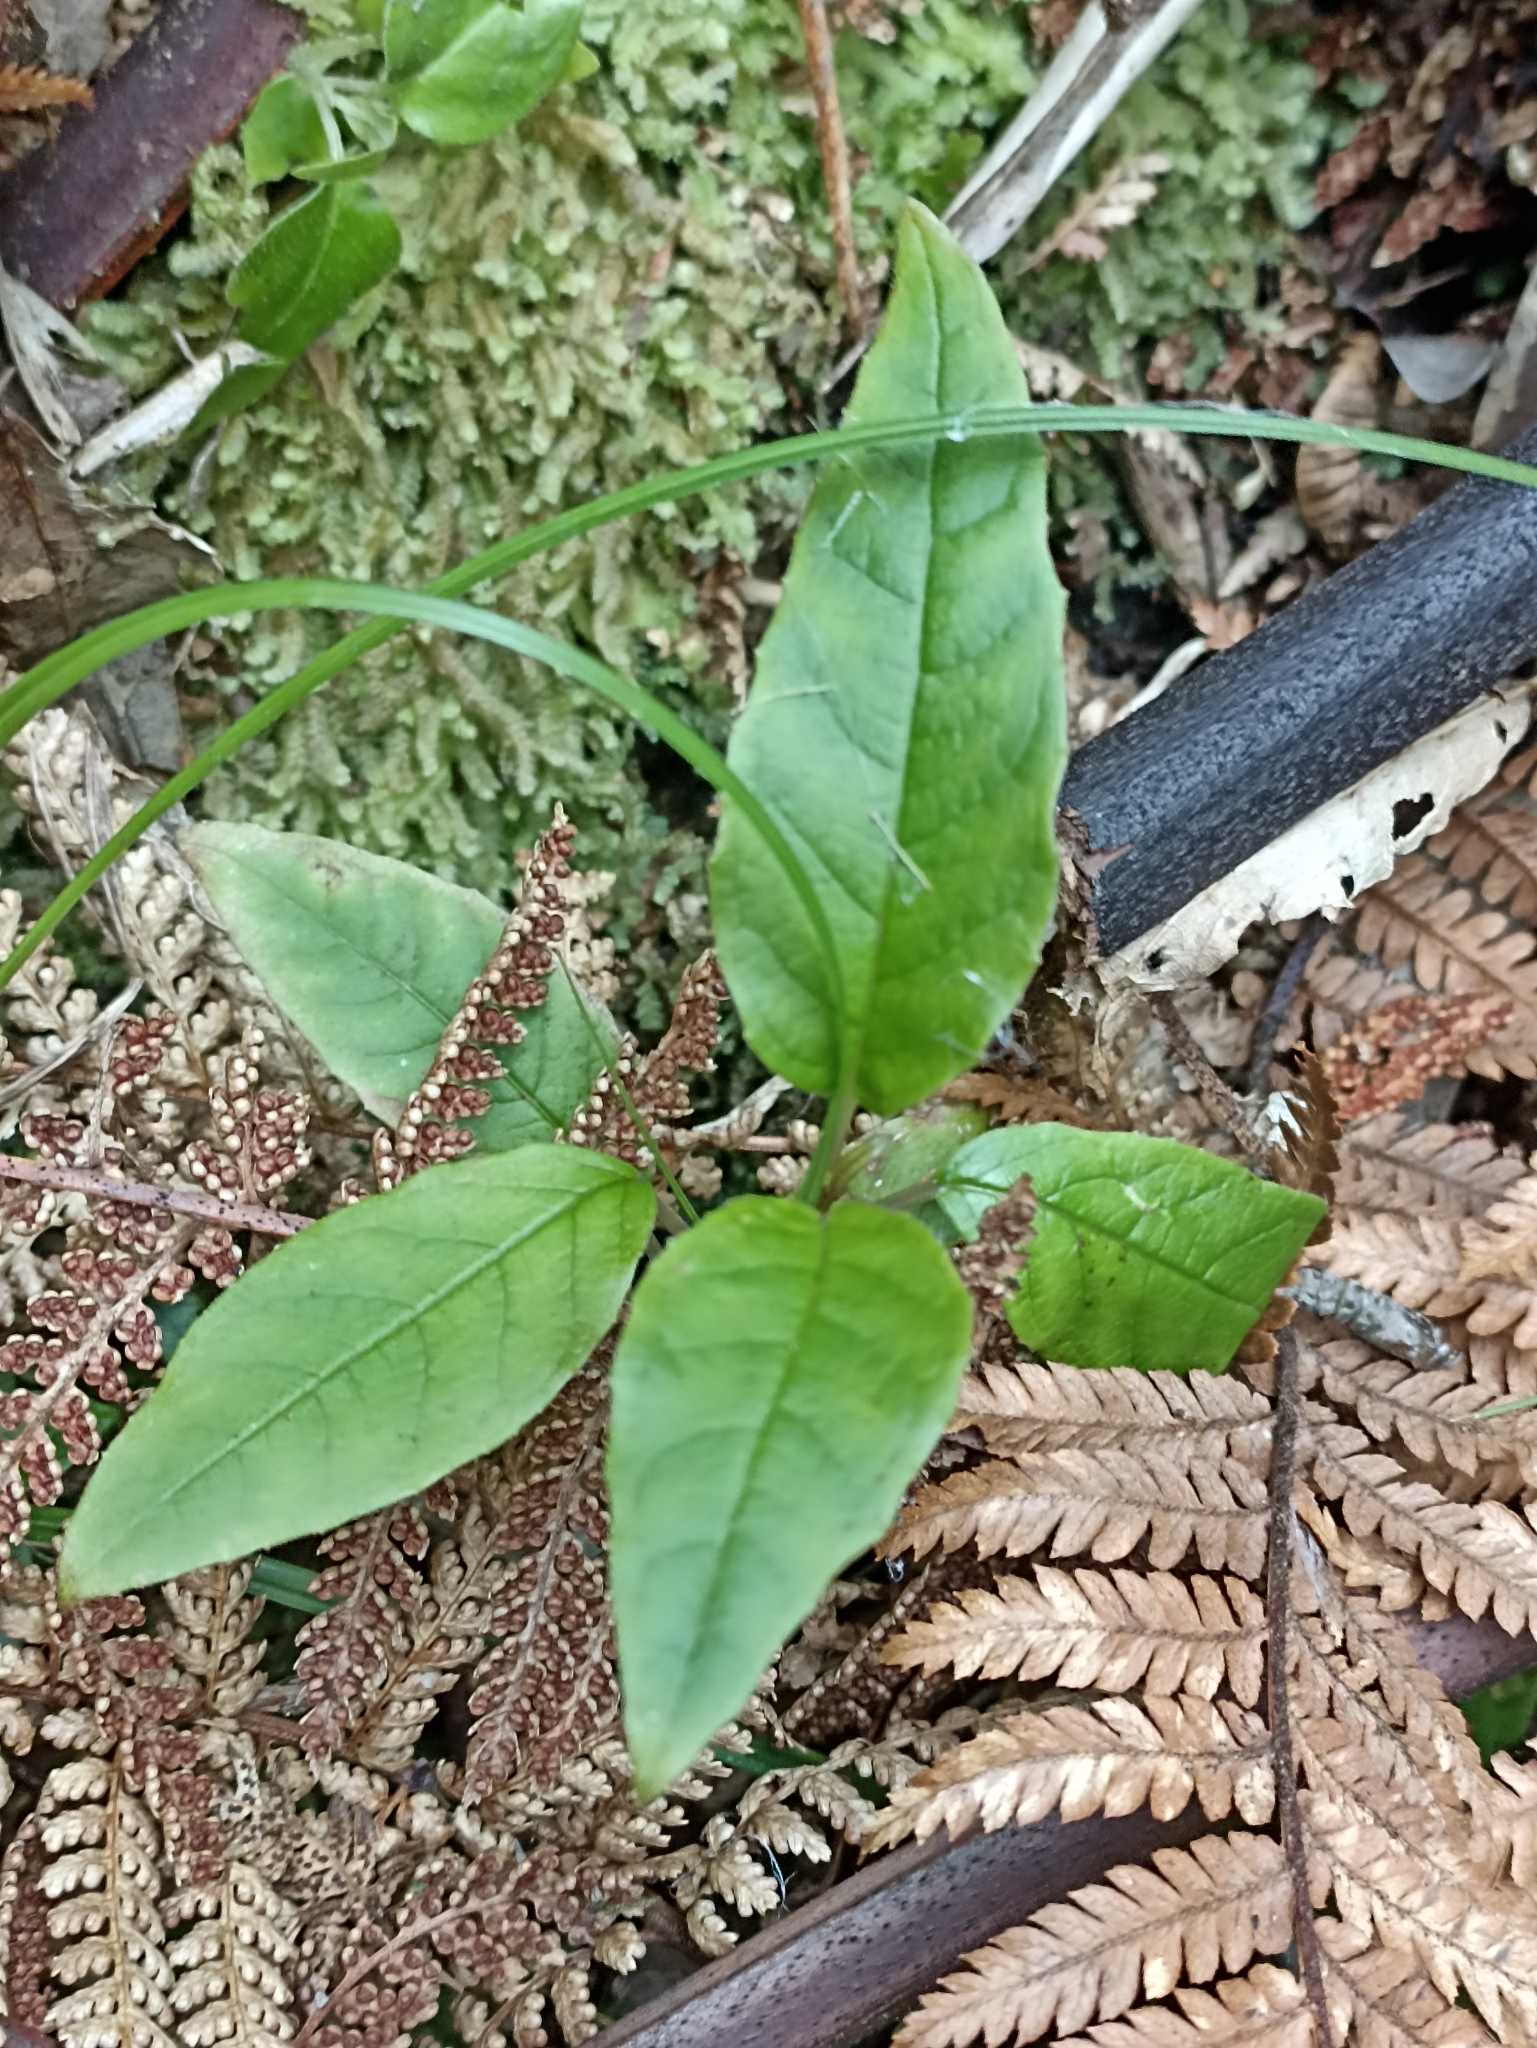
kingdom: Plantae
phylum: Tracheophyta
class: Magnoliopsida
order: Myrtales
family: Onagraceae
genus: Fuchsia
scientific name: Fuchsia excorticata
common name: Tree fuchsia
